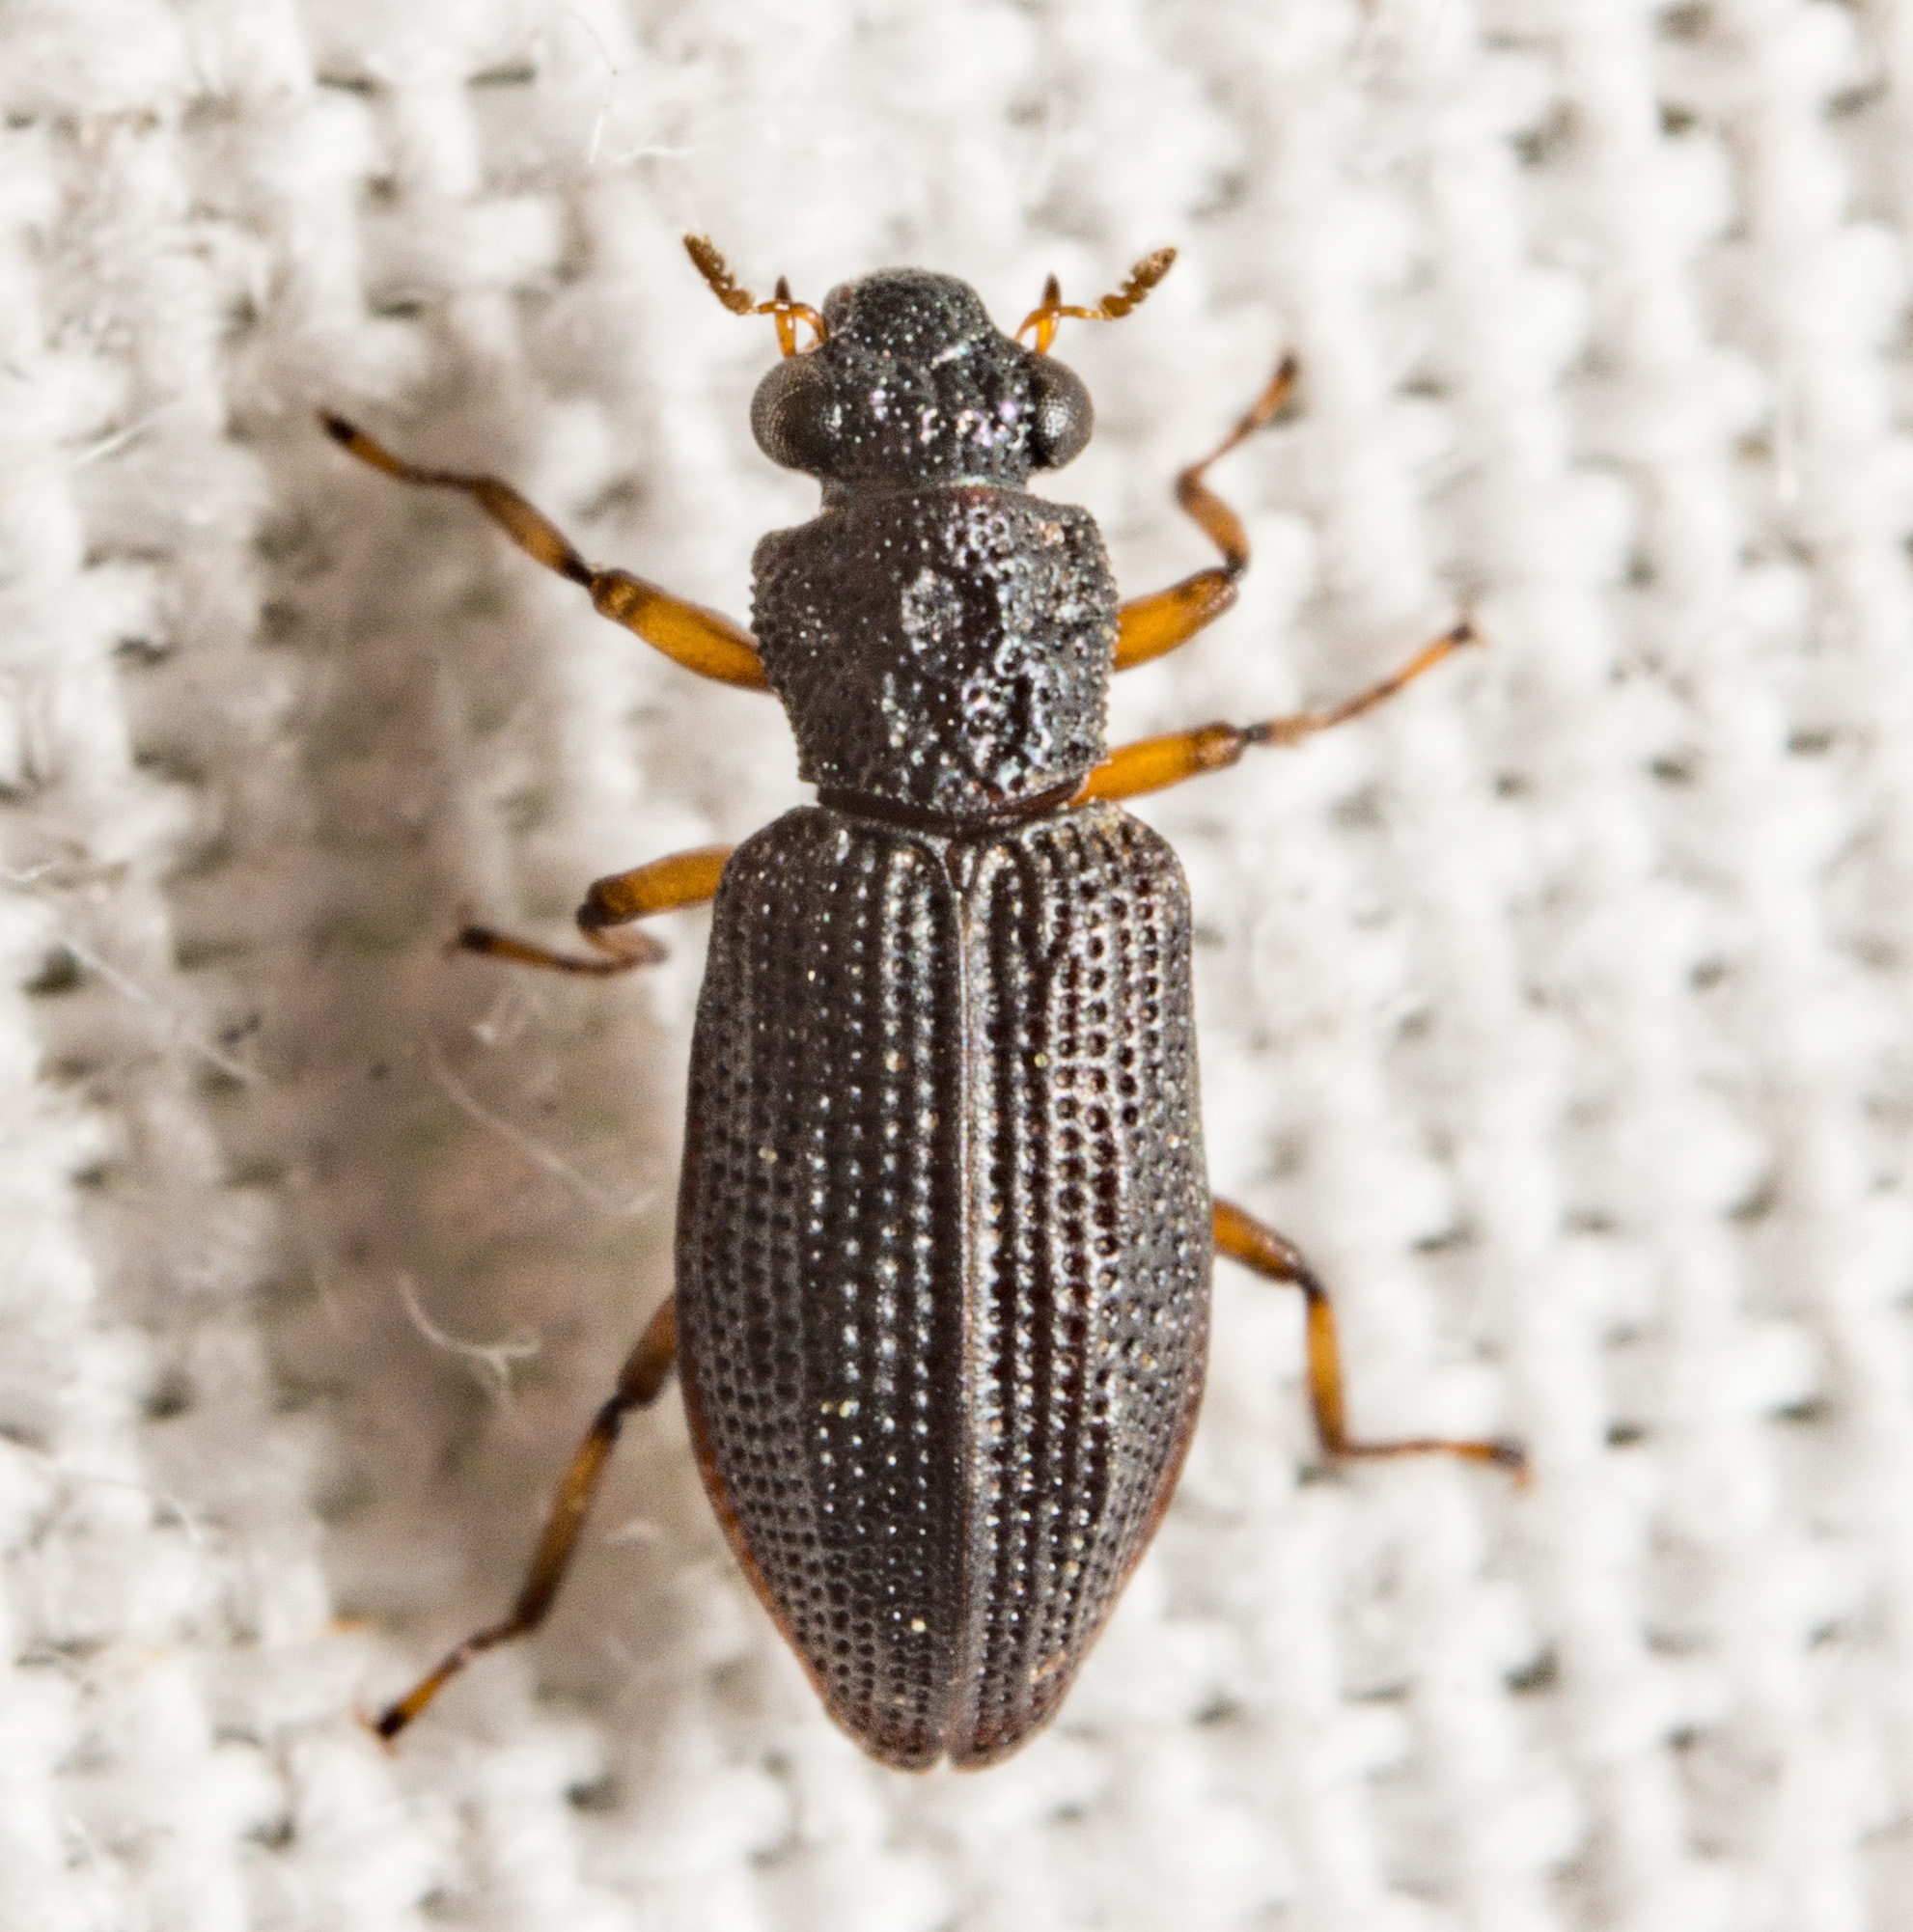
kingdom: Animalia
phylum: Arthropoda
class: Insecta
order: Coleoptera
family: Hydrochidae
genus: Hydrochus
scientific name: Hydrochus
